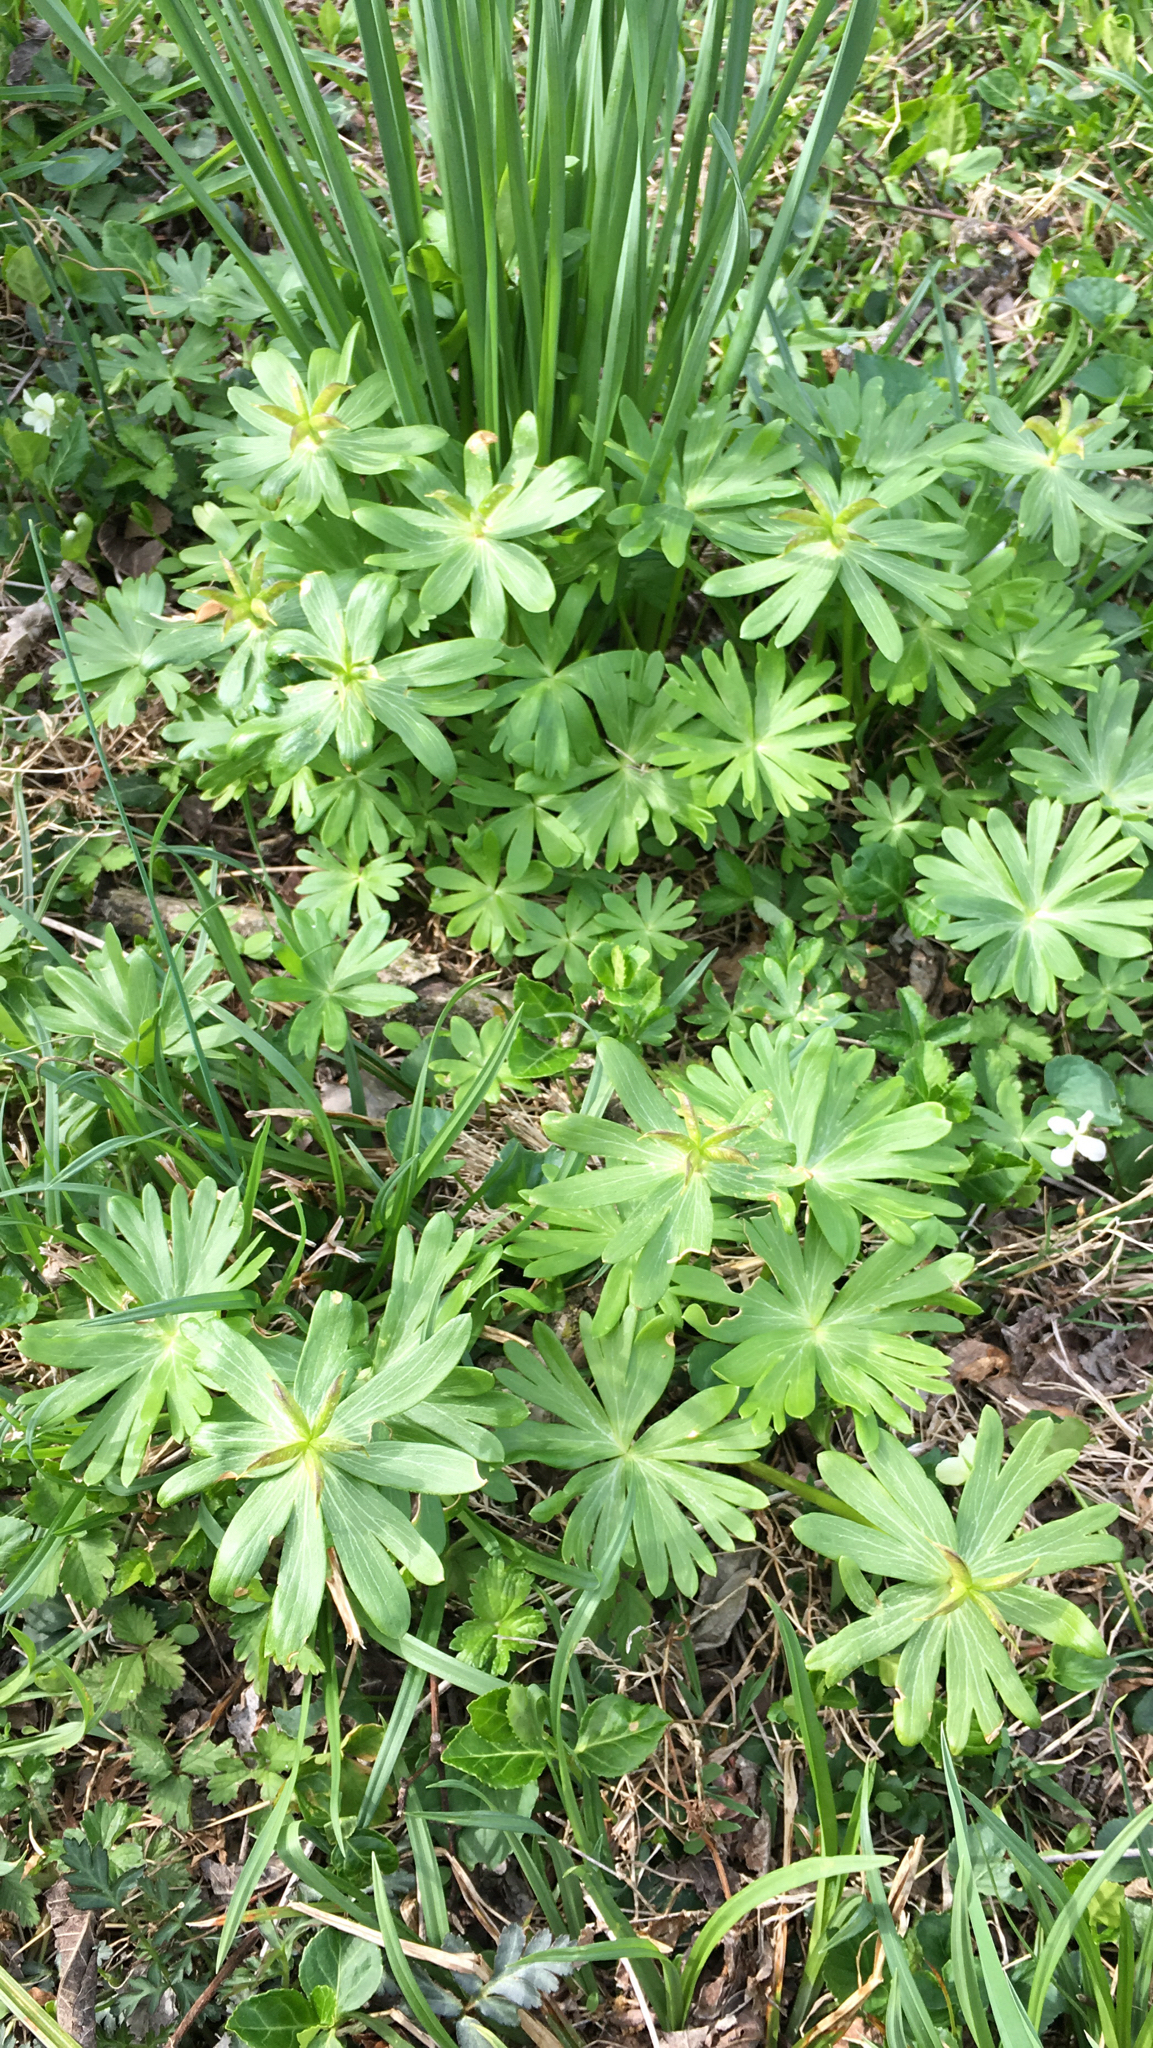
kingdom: Plantae
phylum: Tracheophyta
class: Magnoliopsida
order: Ranunculales
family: Ranunculaceae
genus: Eranthis
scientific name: Eranthis hyemalis
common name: Winter aconite
